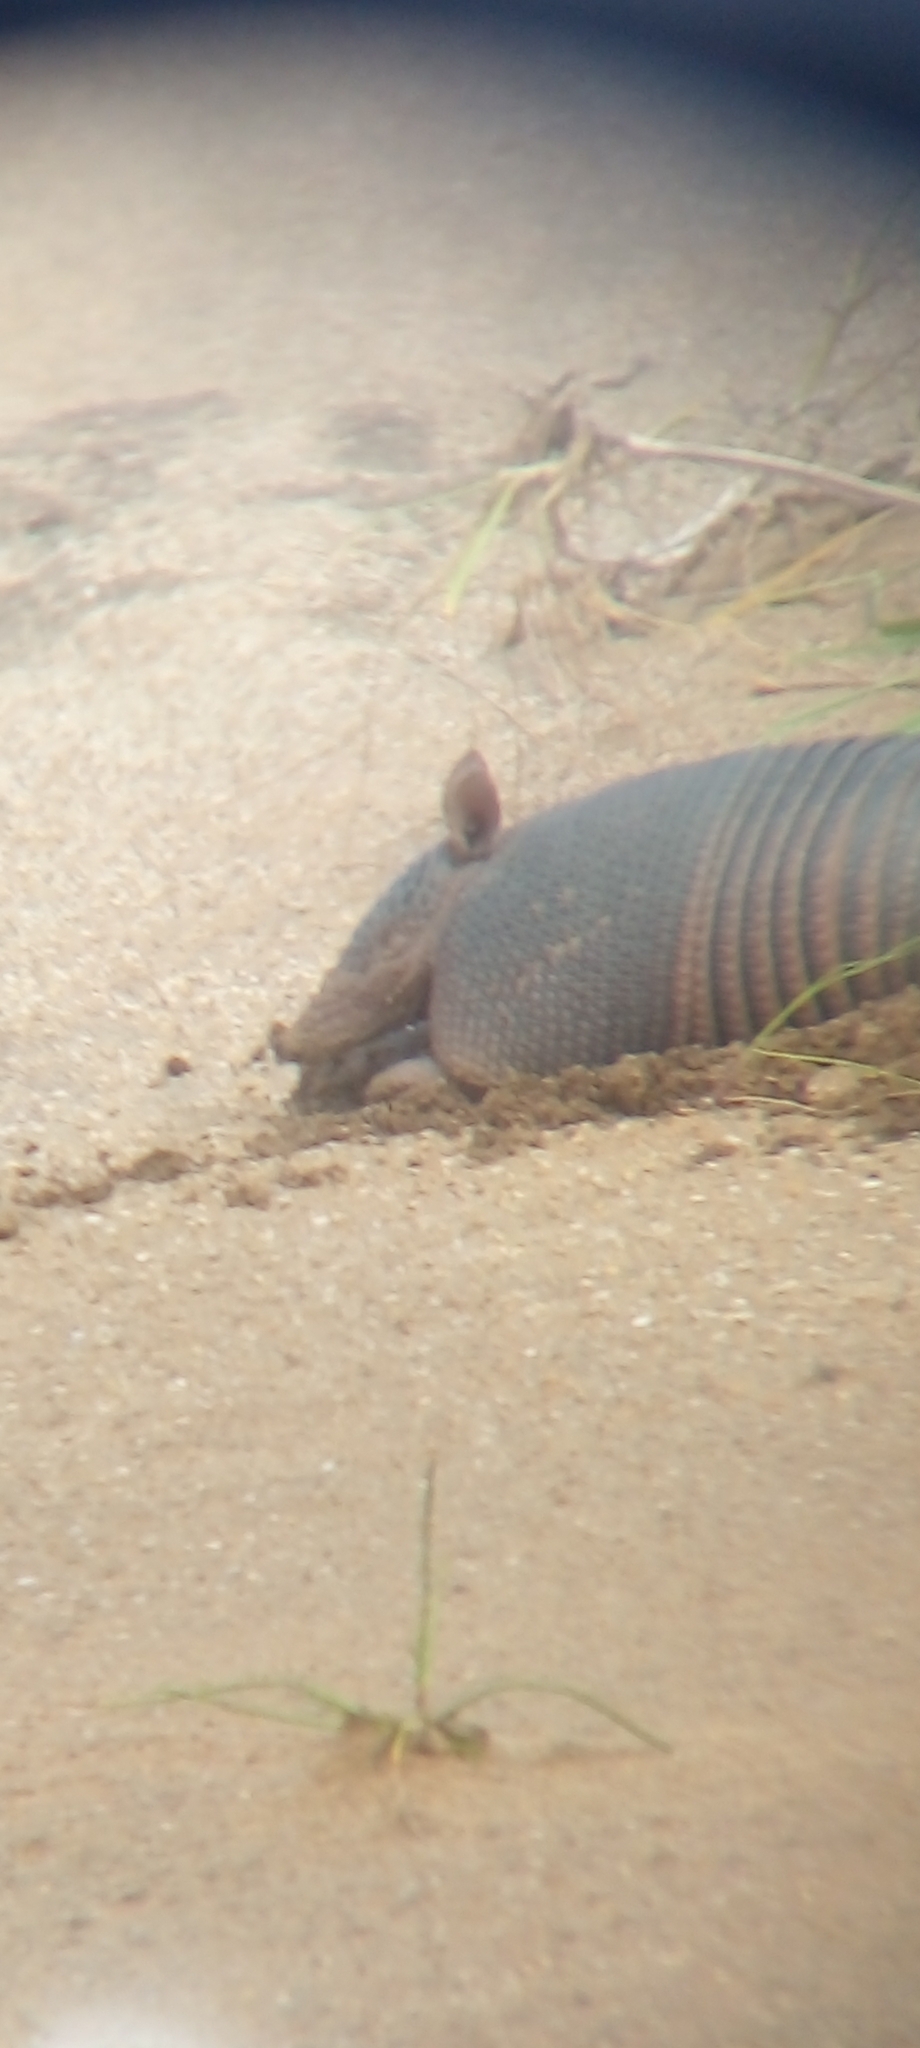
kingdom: Animalia
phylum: Chordata
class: Mammalia
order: Cingulata
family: Dasypodidae
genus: Dasypus
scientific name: Dasypus septemcinctus
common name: Seven-banded armadillo
